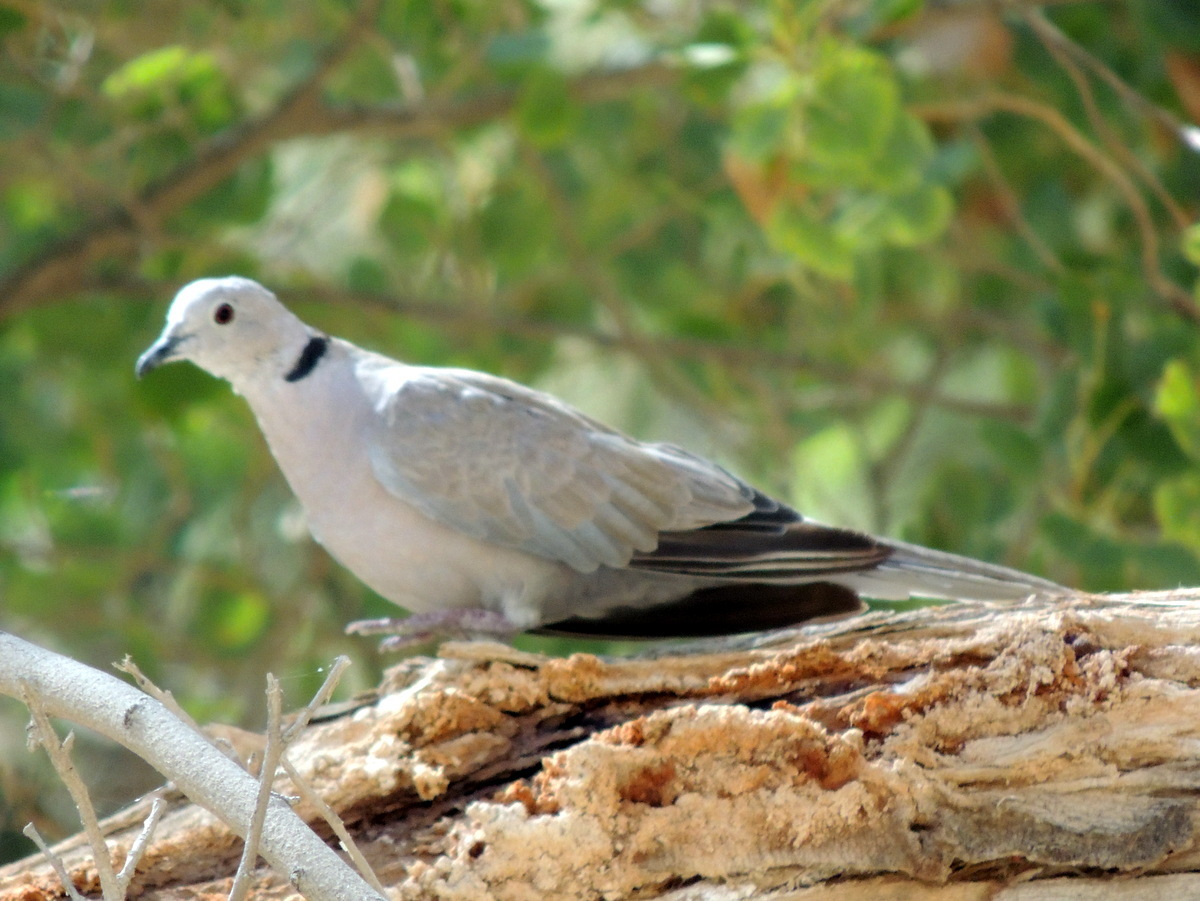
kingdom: Animalia
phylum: Chordata
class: Aves
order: Columbiformes
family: Columbidae
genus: Streptopelia
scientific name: Streptopelia decaocto
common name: Eurasian collared dove
